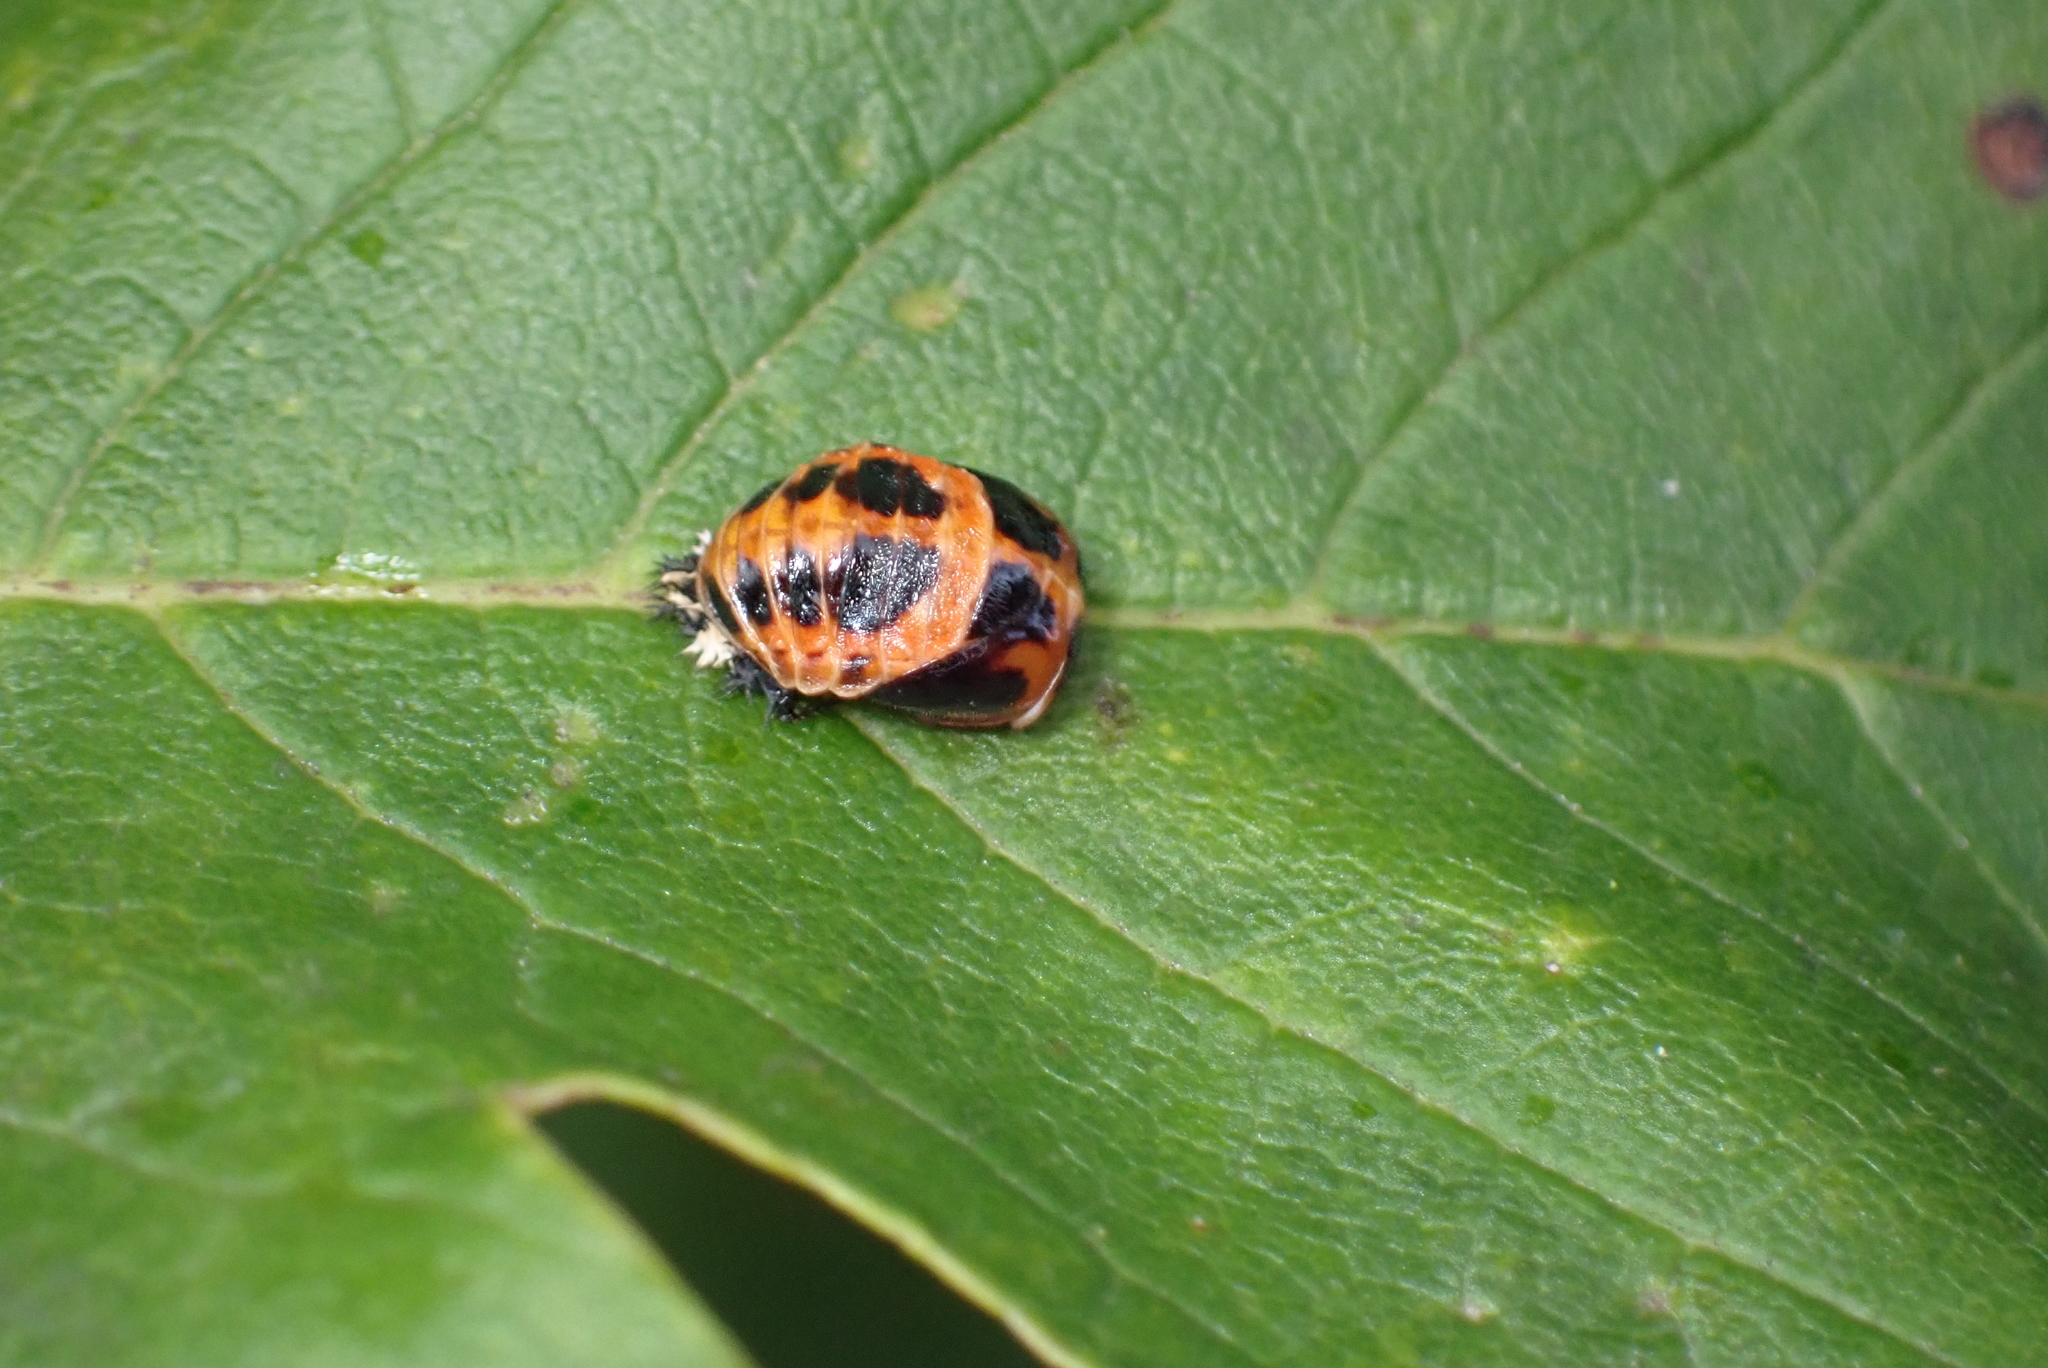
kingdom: Animalia
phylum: Arthropoda
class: Insecta
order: Coleoptera
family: Coccinellidae
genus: Harmonia
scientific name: Harmonia axyridis
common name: Harlequin ladybird
